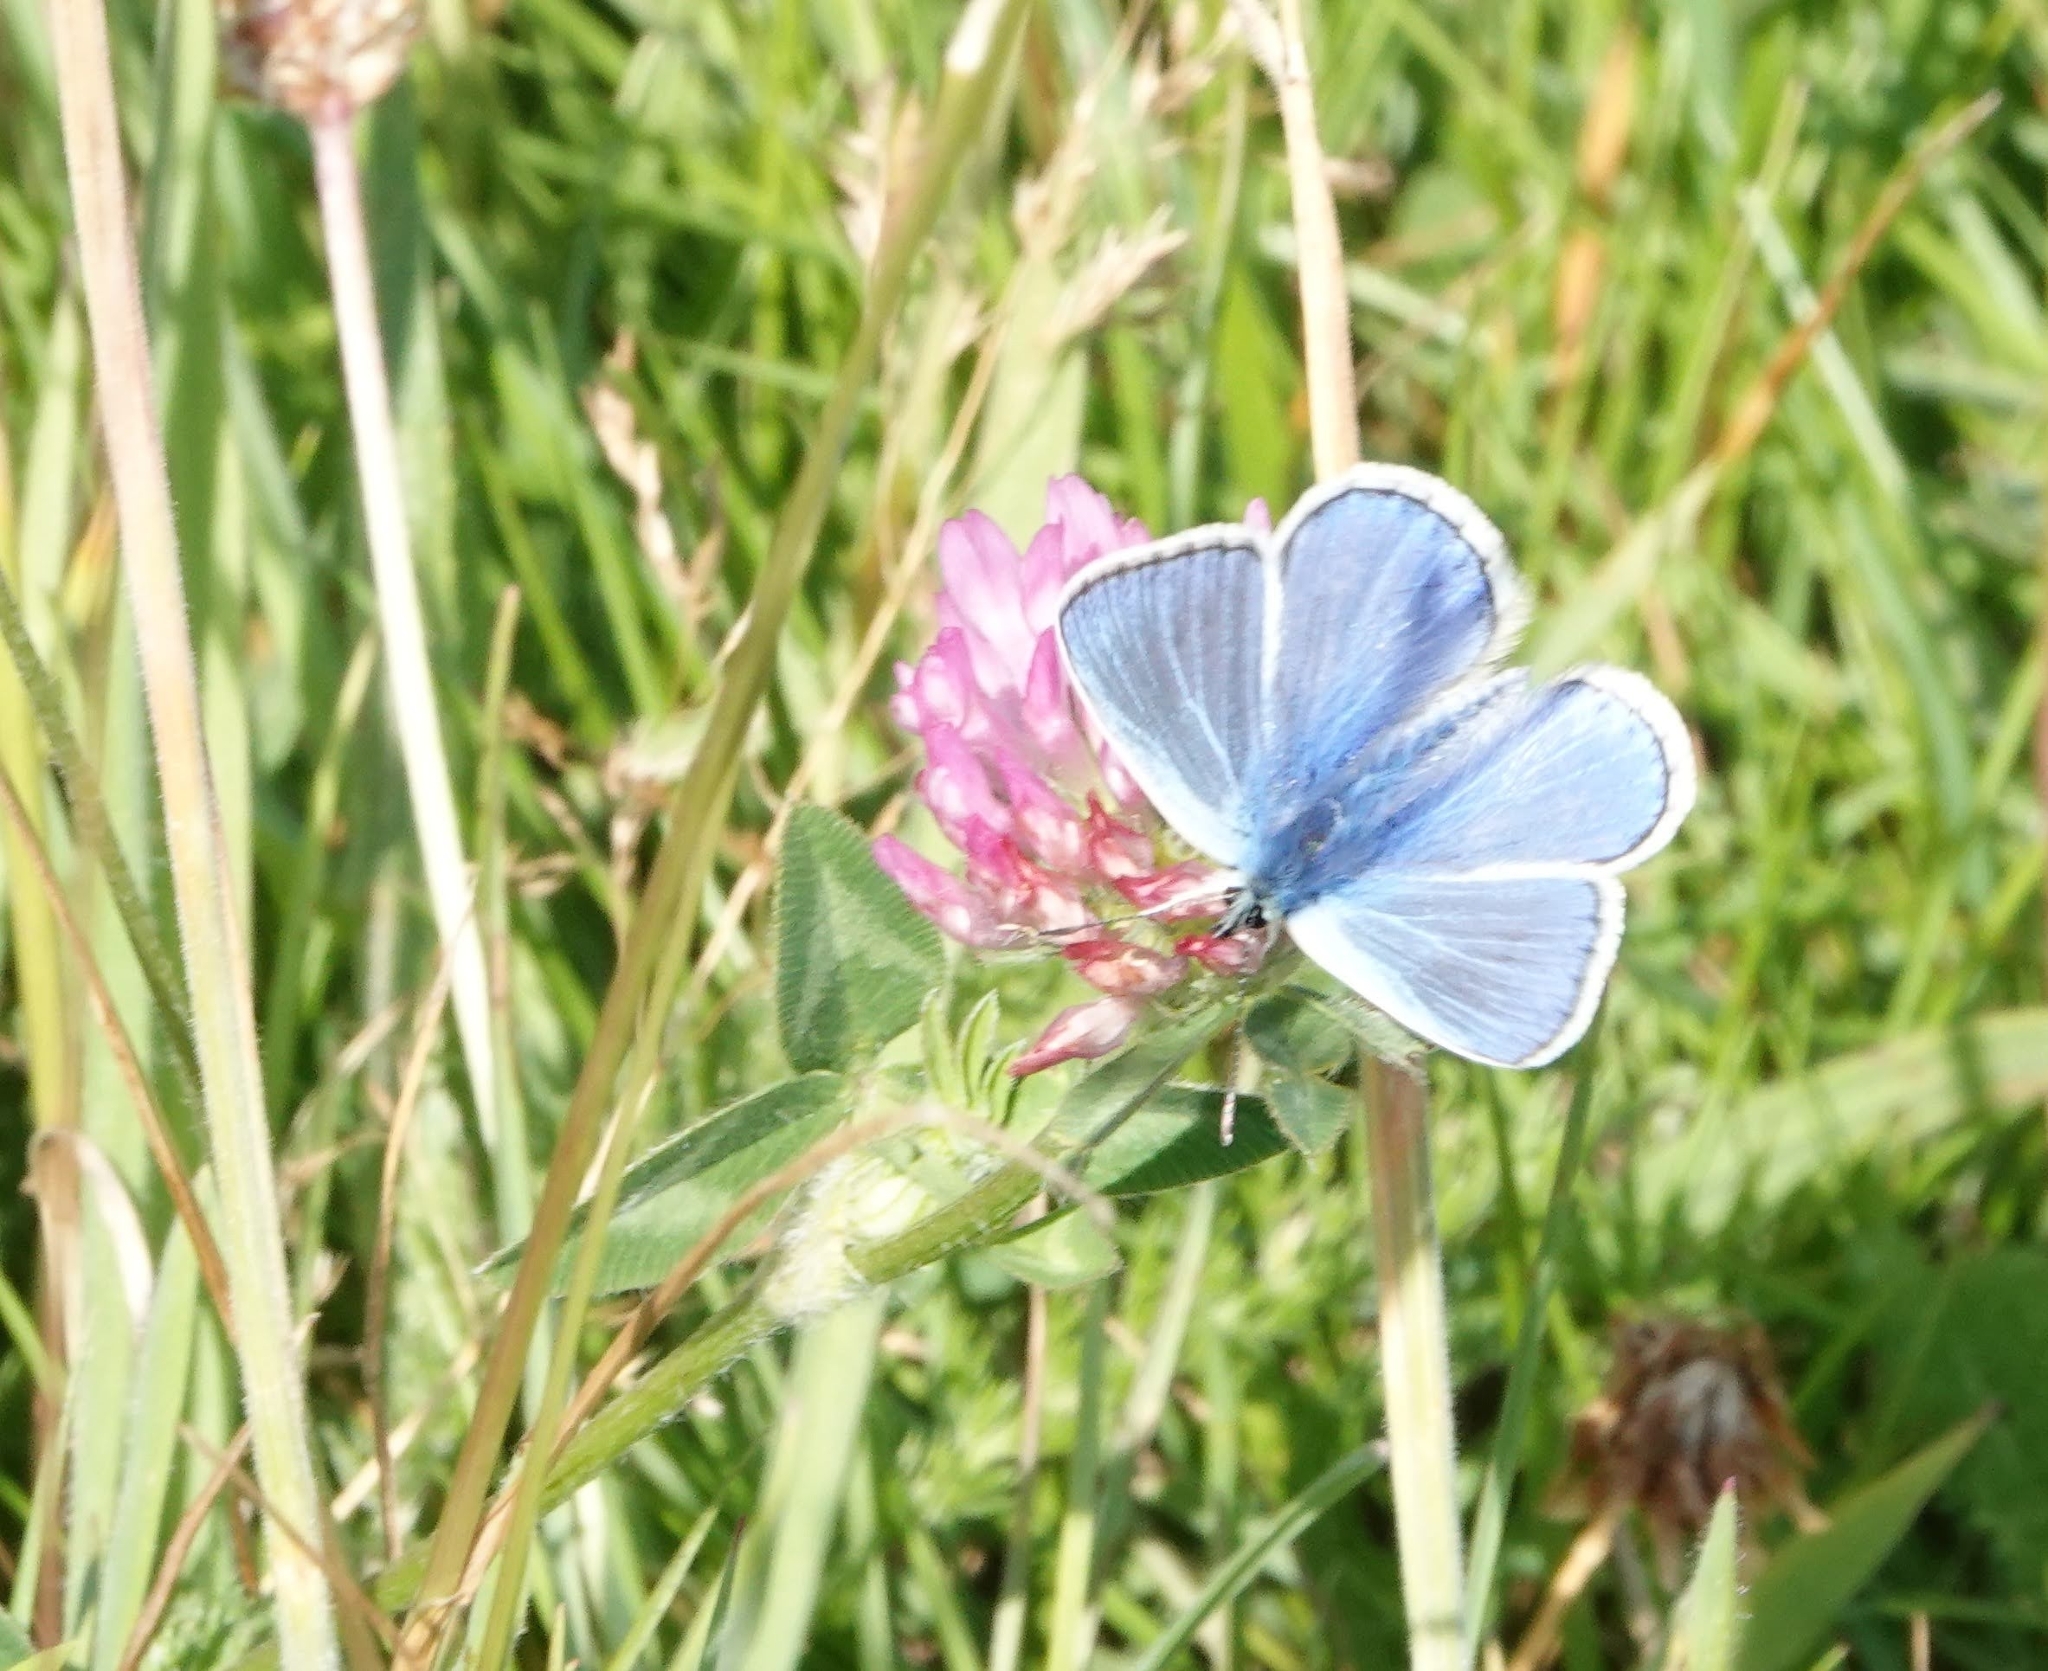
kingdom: Animalia
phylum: Arthropoda
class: Insecta
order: Lepidoptera
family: Lycaenidae
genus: Polyommatus
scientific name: Polyommatus icarus
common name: Common blue
